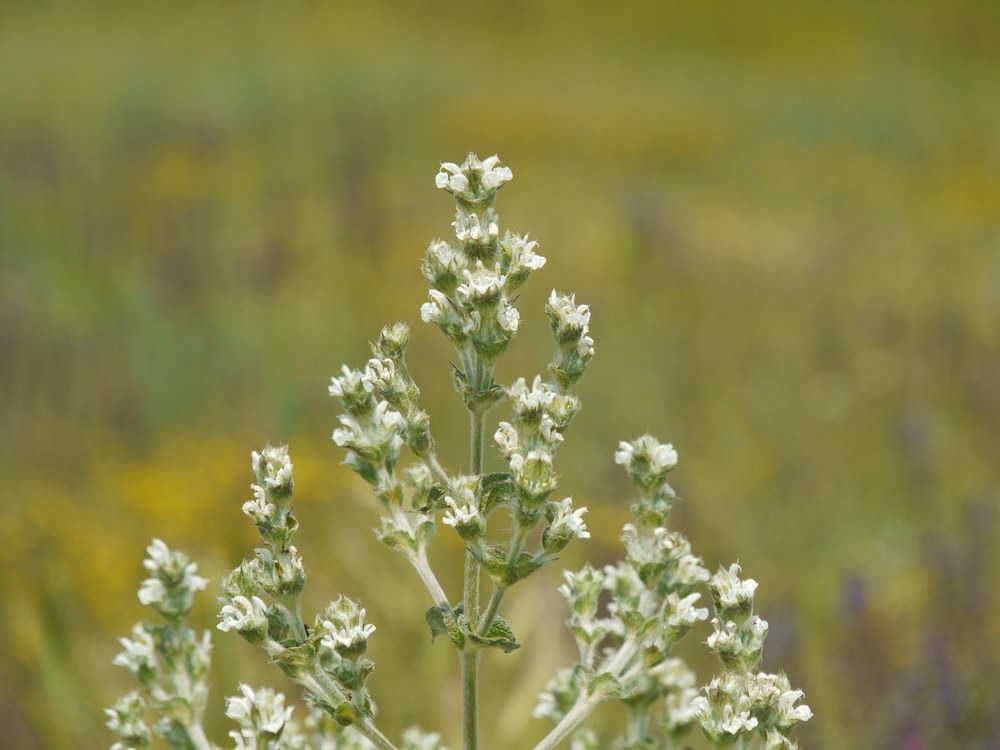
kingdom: Plantae
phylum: Tracheophyta
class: Magnoliopsida
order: Lamiales
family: Lamiaceae
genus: Salvia
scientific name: Salvia aethiopis
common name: Mediterranean sage
